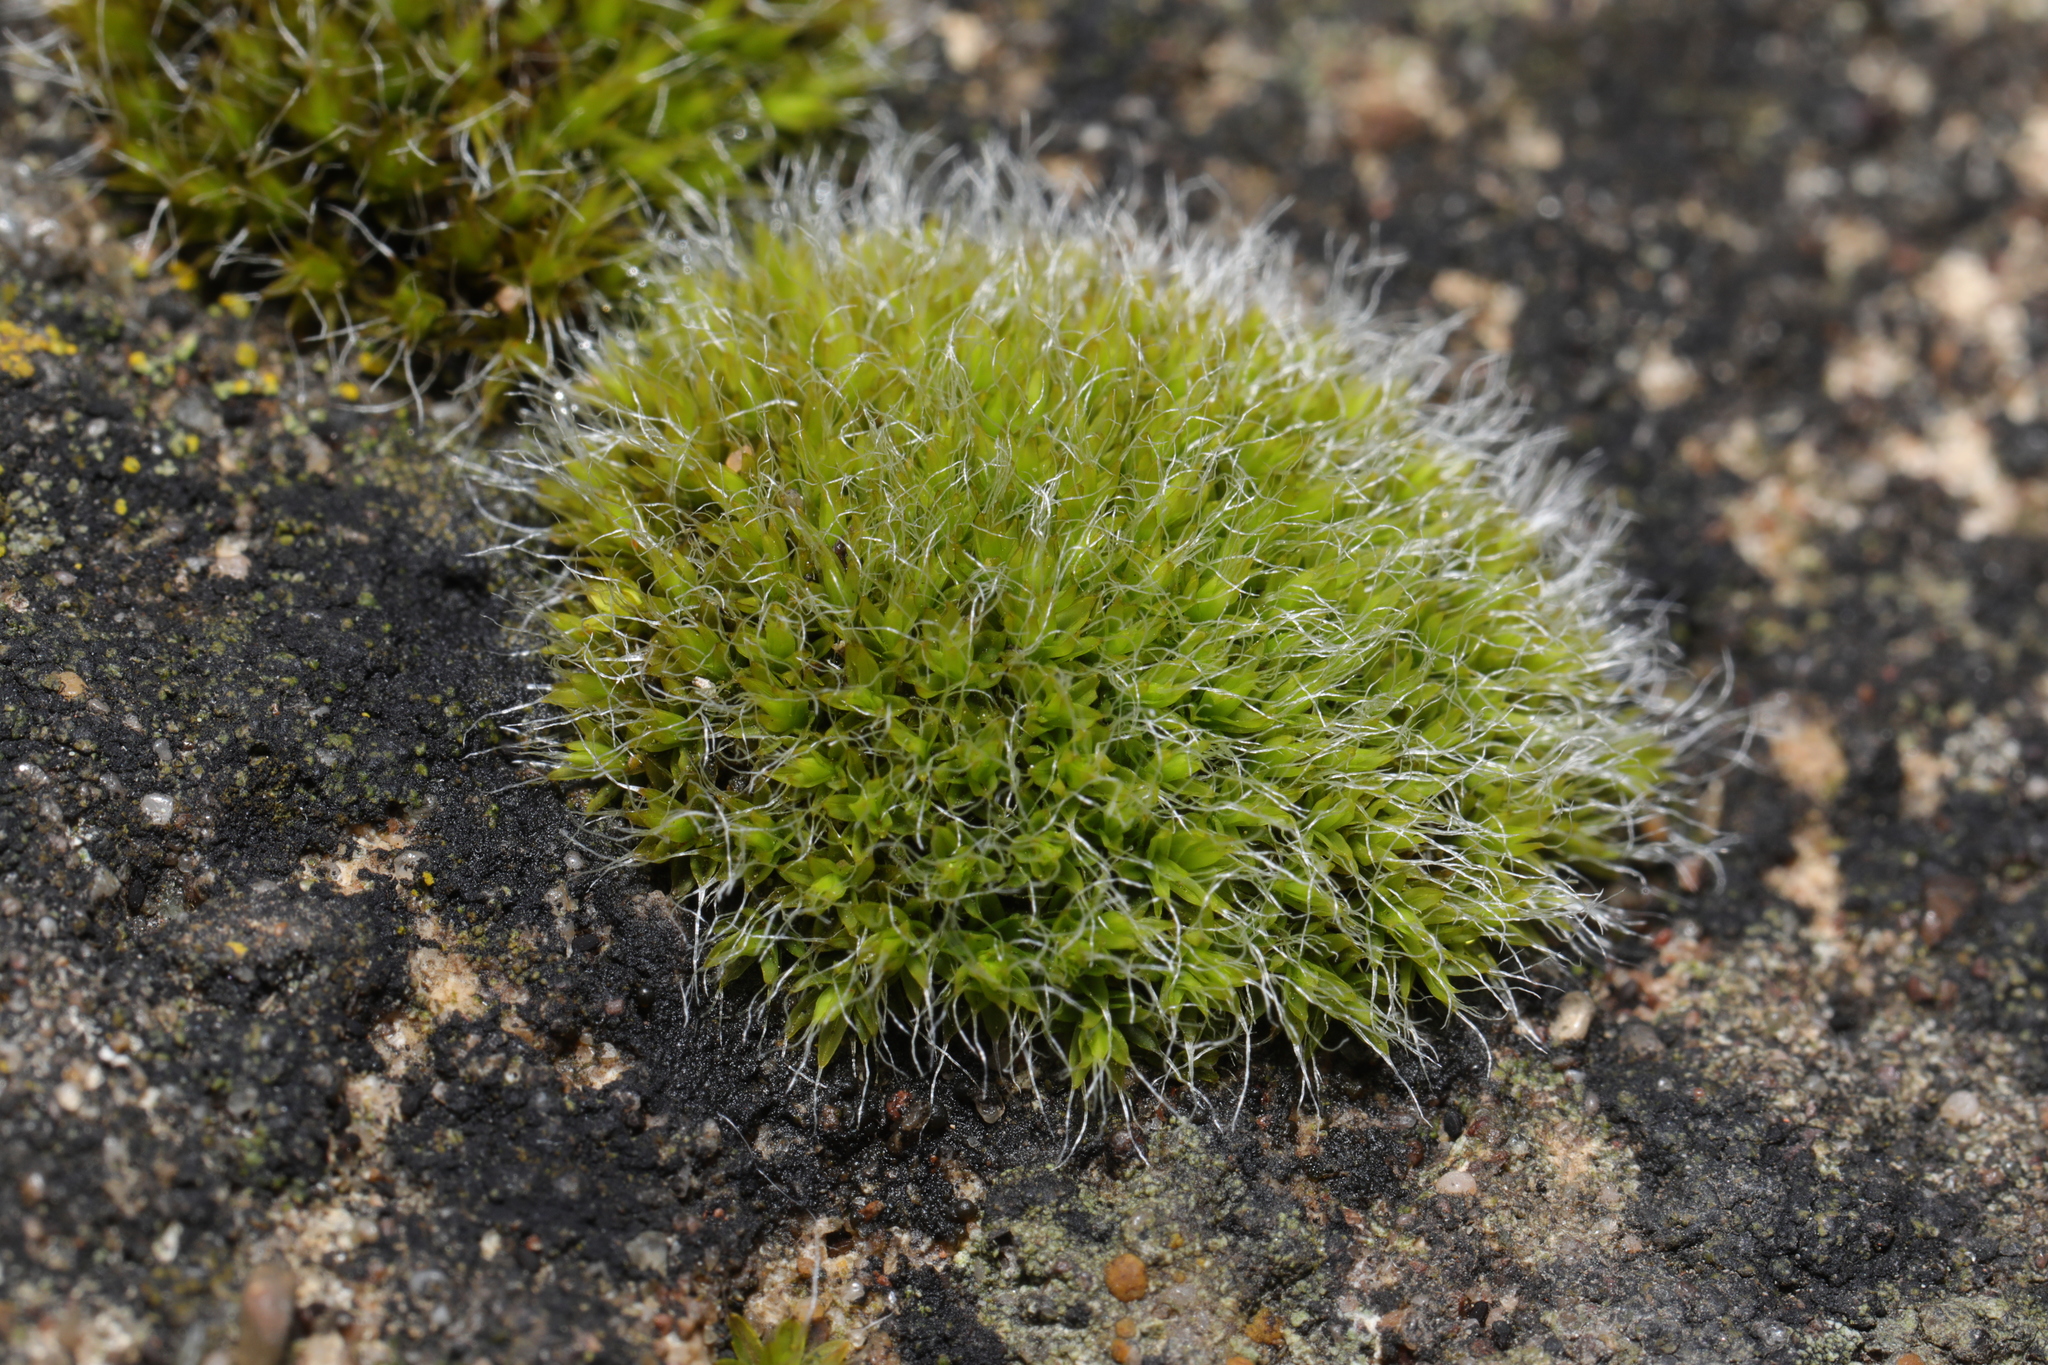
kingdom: Plantae
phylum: Bryophyta
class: Bryopsida
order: Grimmiales
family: Grimmiaceae
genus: Grimmia
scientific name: Grimmia pulvinata
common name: Grey-cushioned grimmia
